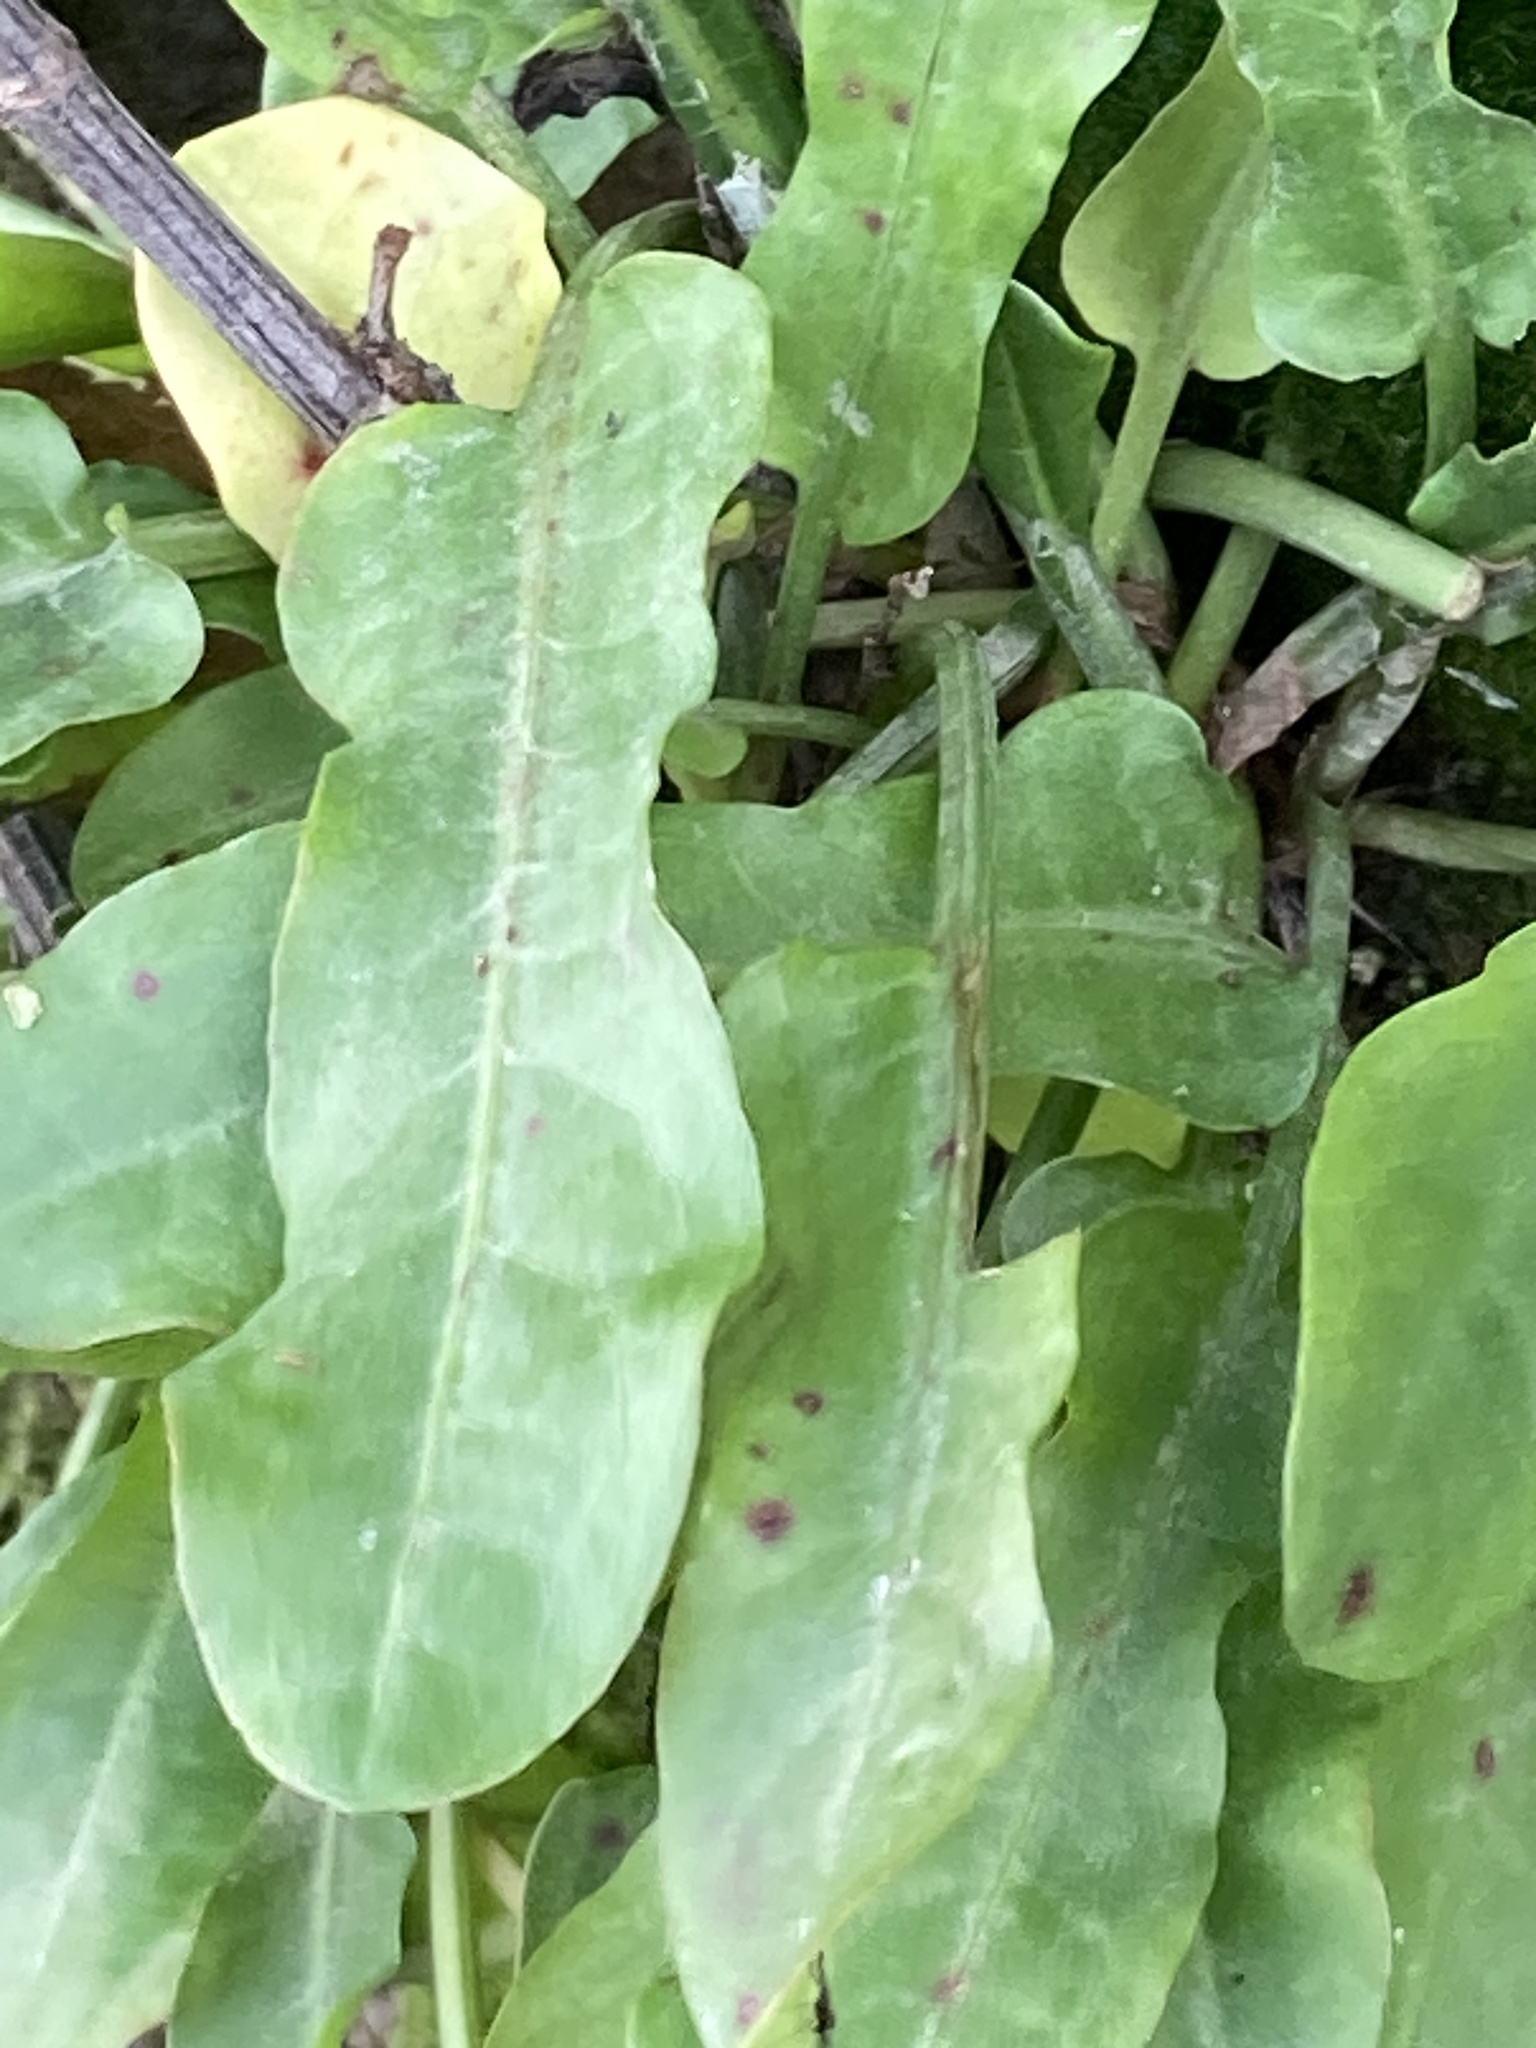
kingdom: Plantae
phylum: Tracheophyta
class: Magnoliopsida
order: Caryophyllales
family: Polygonaceae
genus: Rumex
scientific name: Rumex acetosa
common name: Garden sorrel
